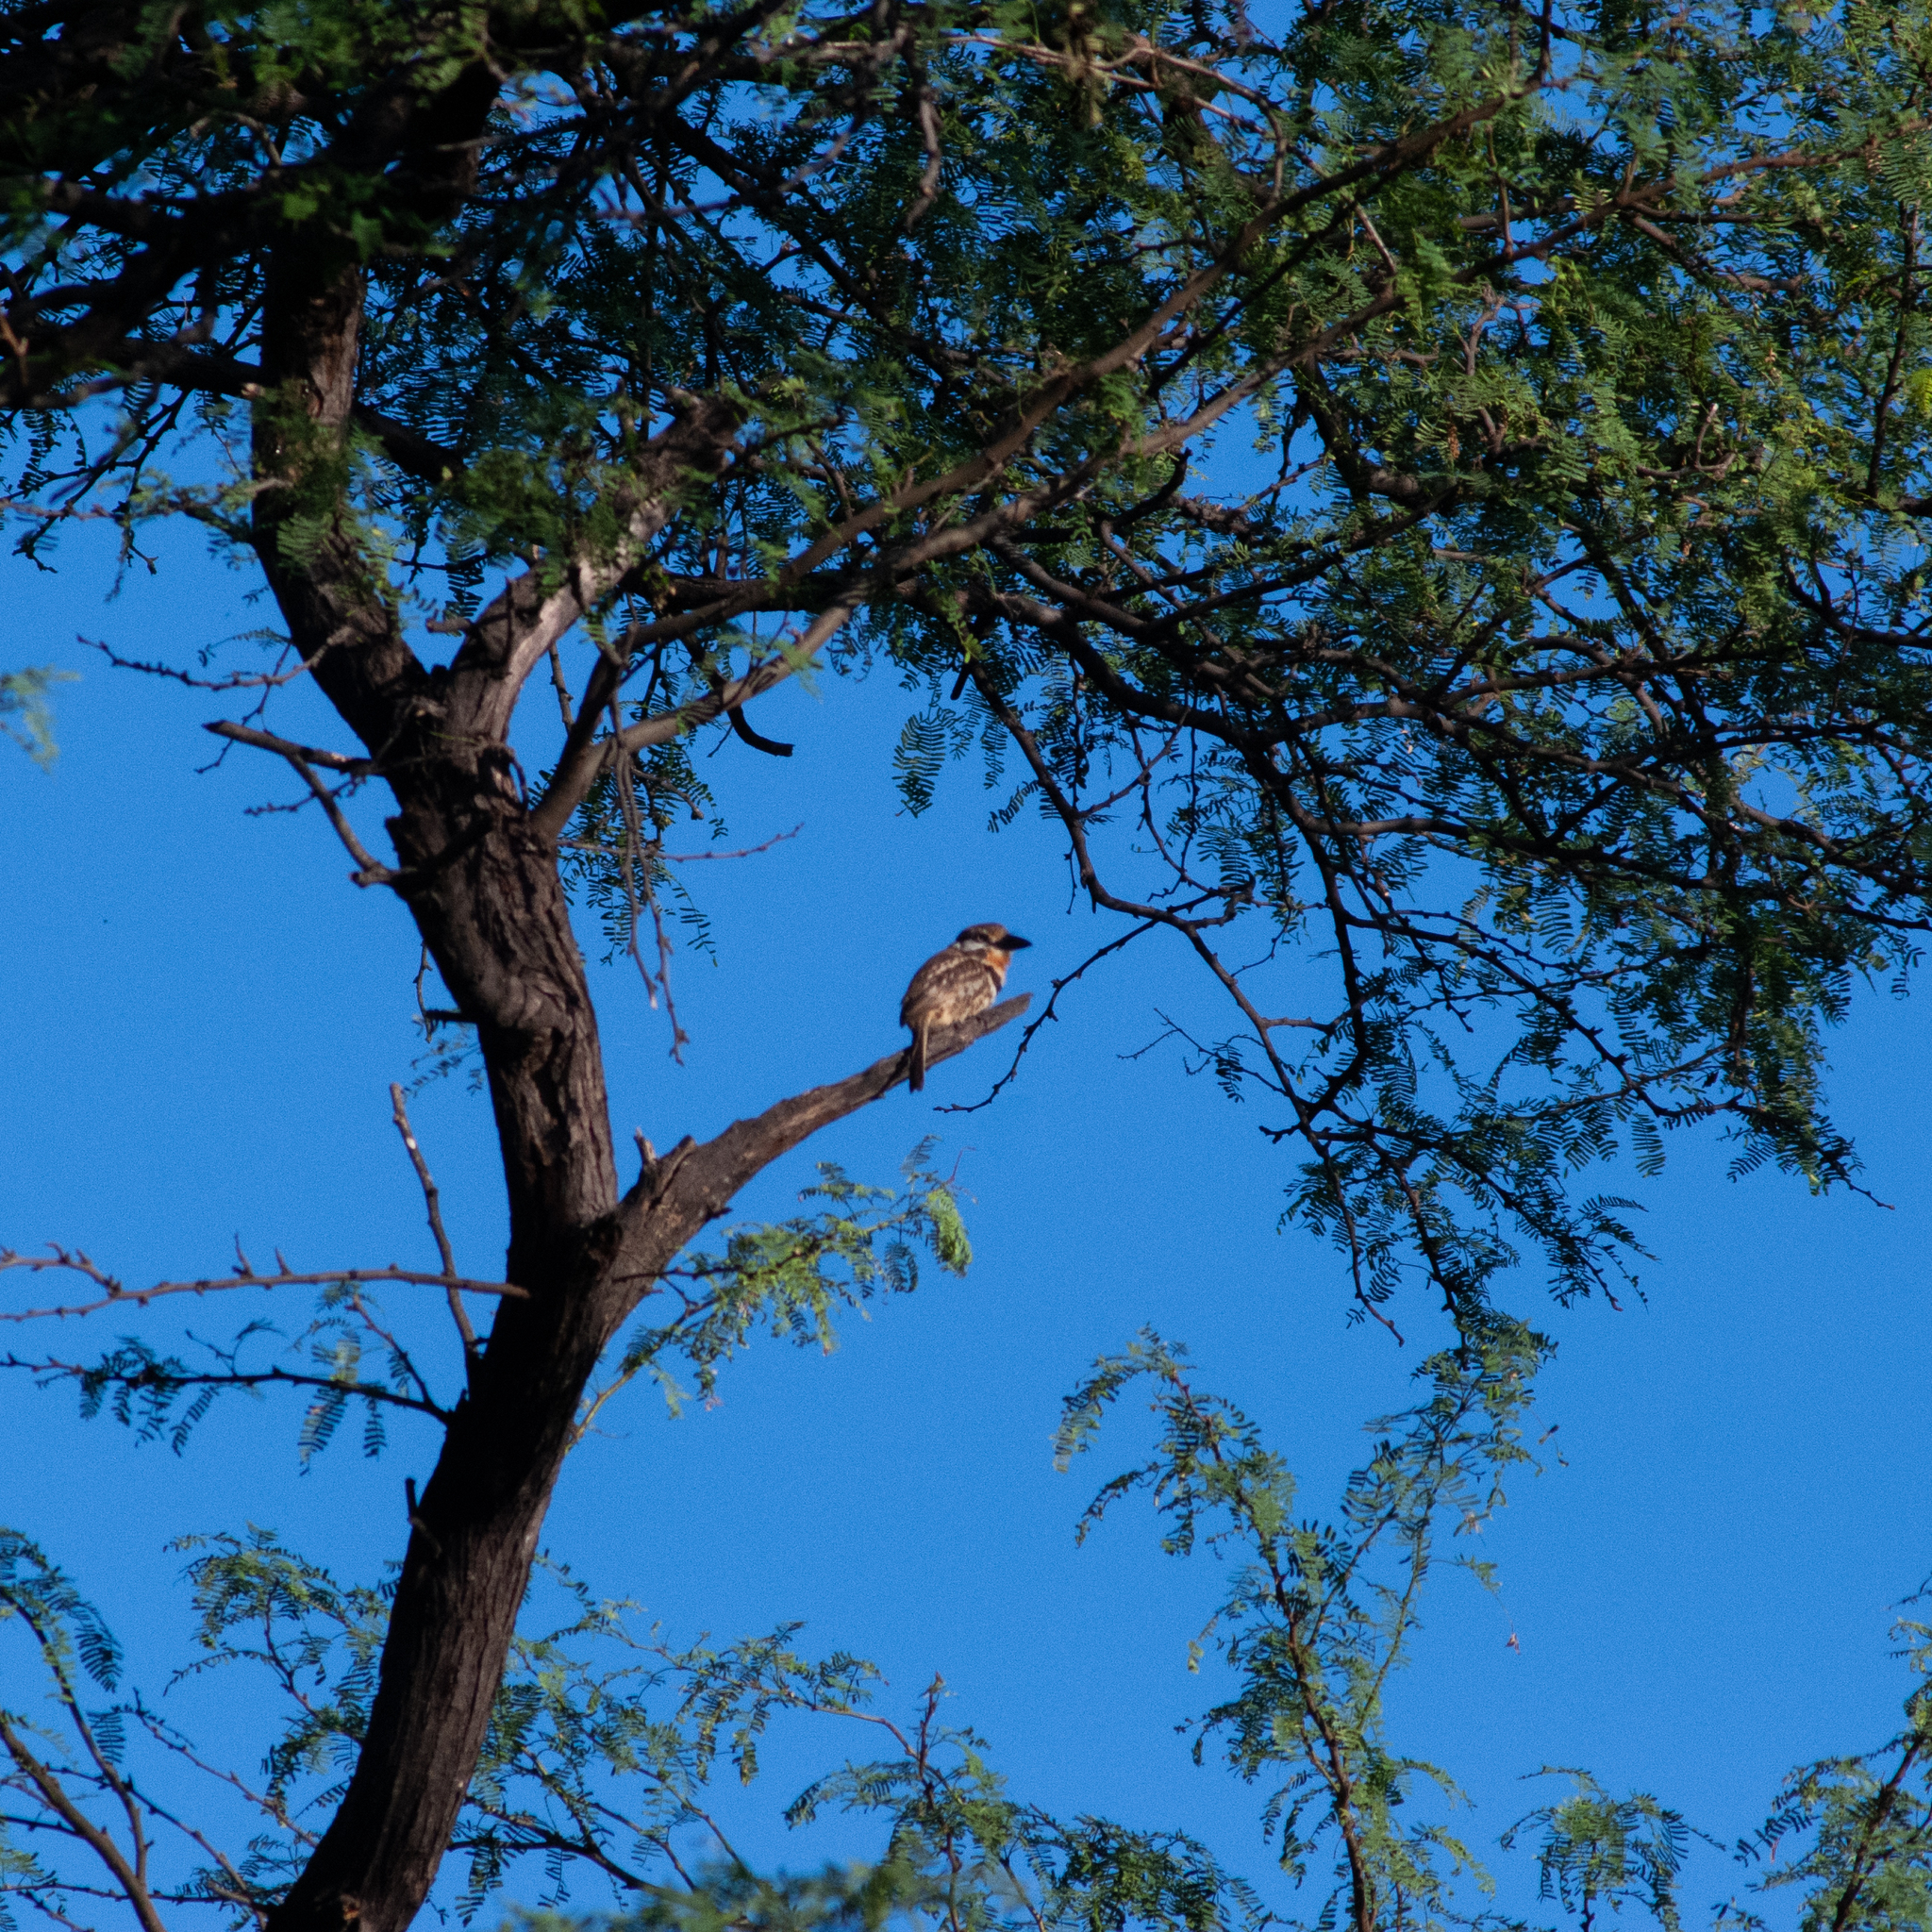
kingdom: Animalia
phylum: Chordata
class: Aves
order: Piciformes
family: Bucconidae
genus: Hypnelus
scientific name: Hypnelus ruficollis
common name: Russet-throated puffbird
